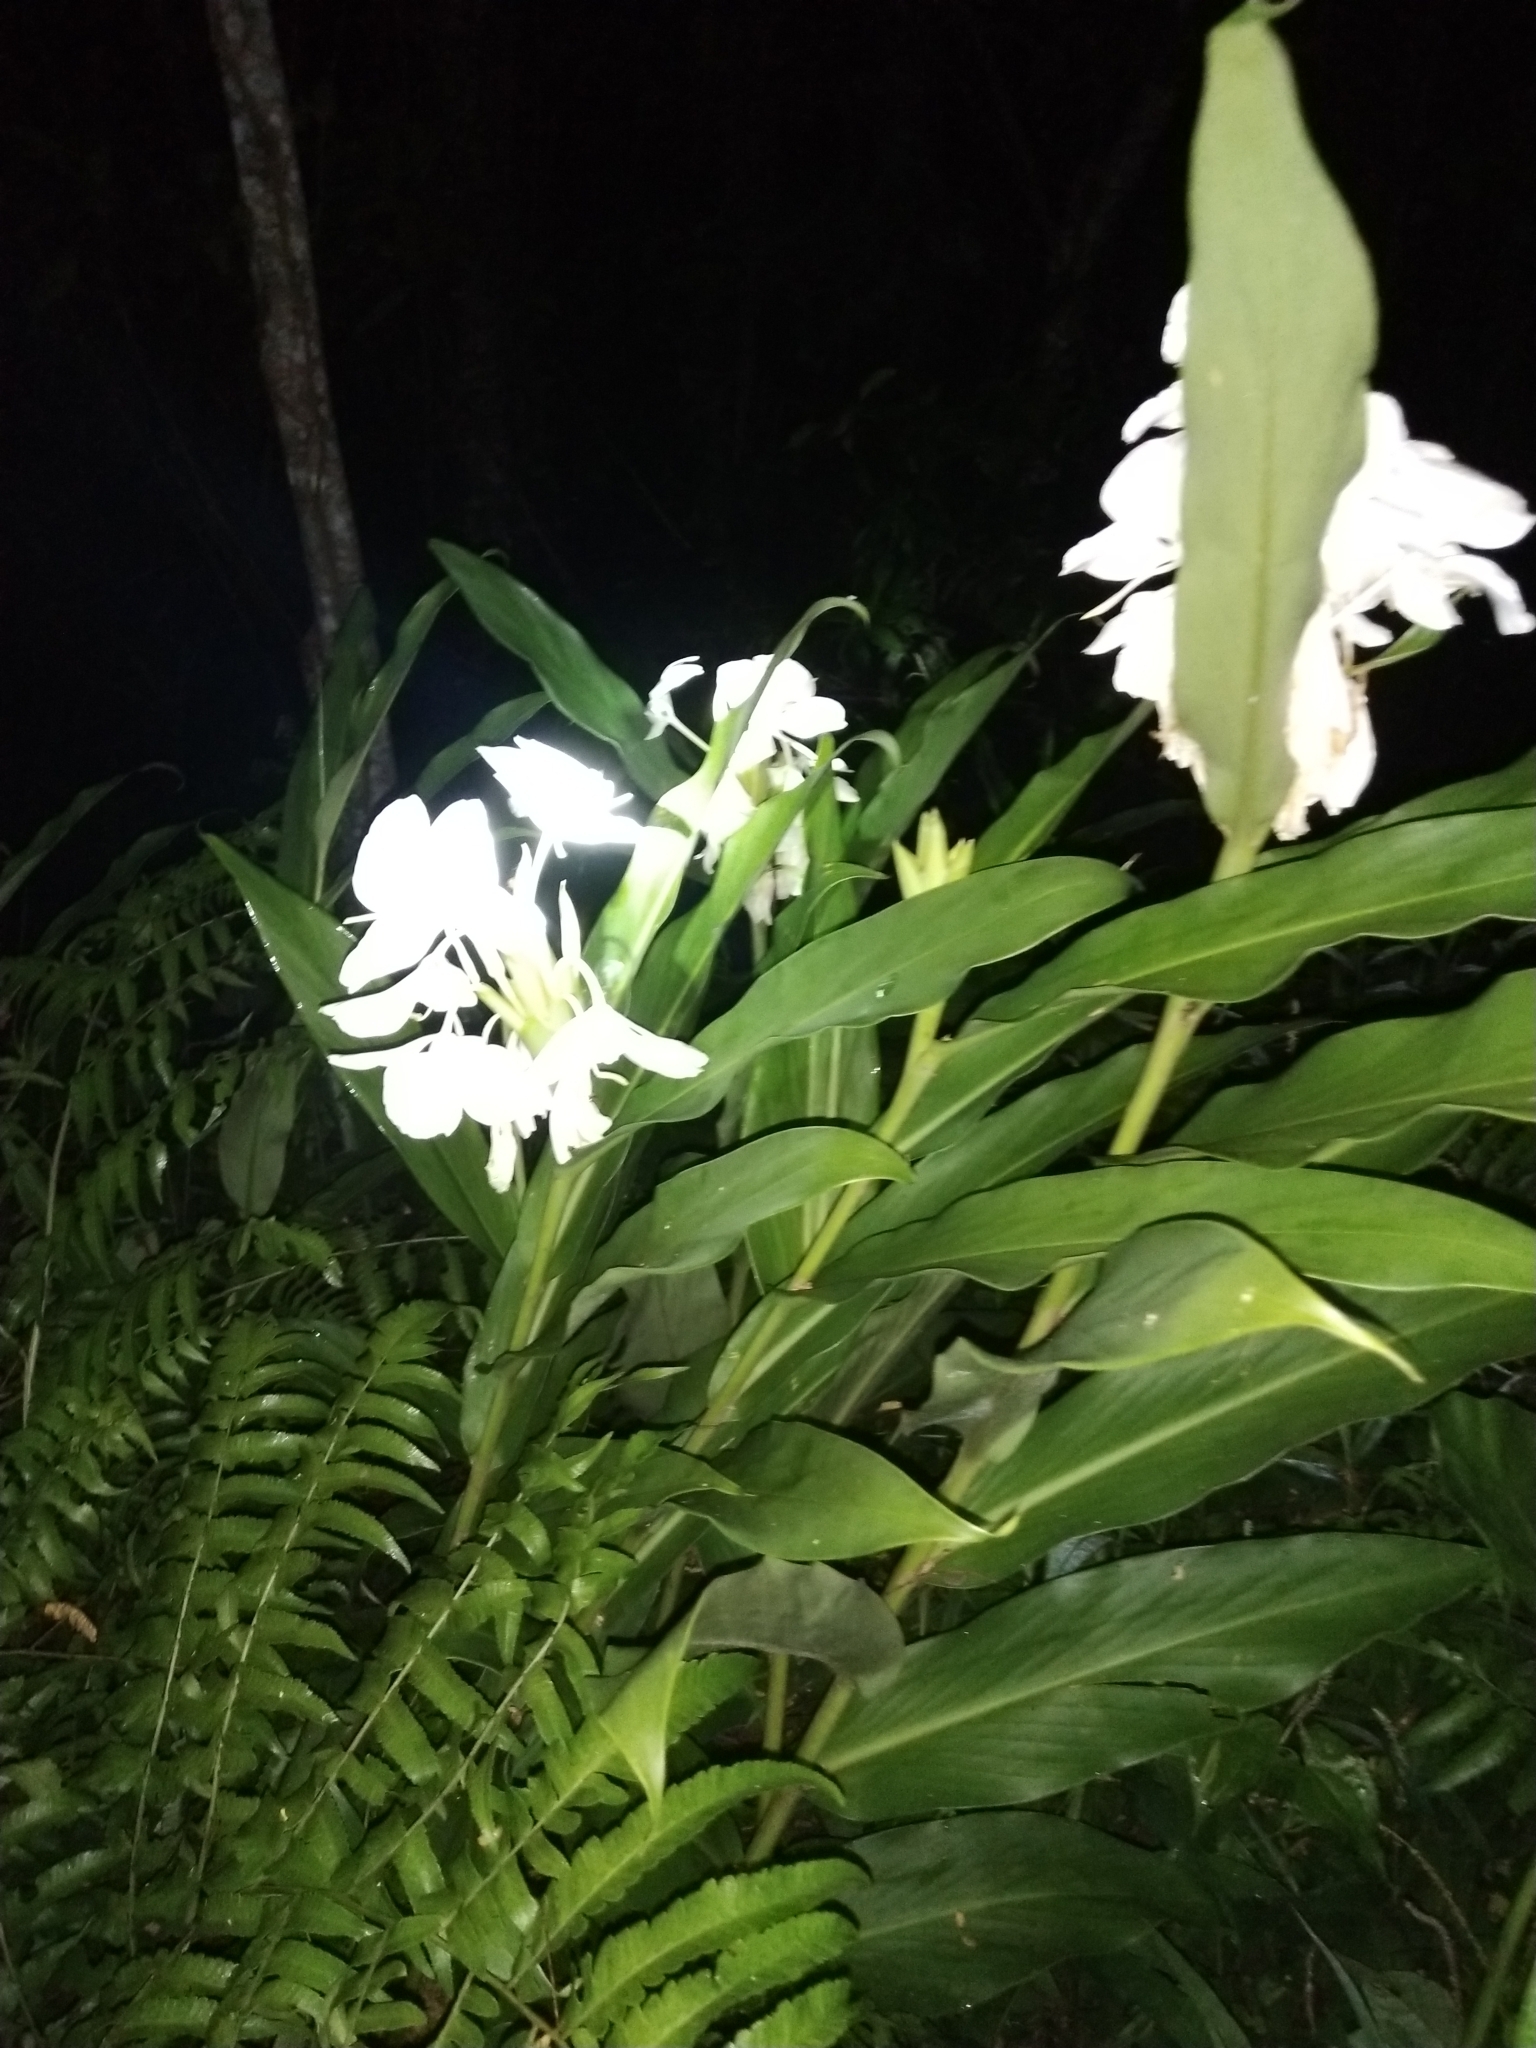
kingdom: Plantae
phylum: Tracheophyta
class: Liliopsida
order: Zingiberales
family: Zingiberaceae
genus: Hedychium
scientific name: Hedychium coronarium
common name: White garland-lily
